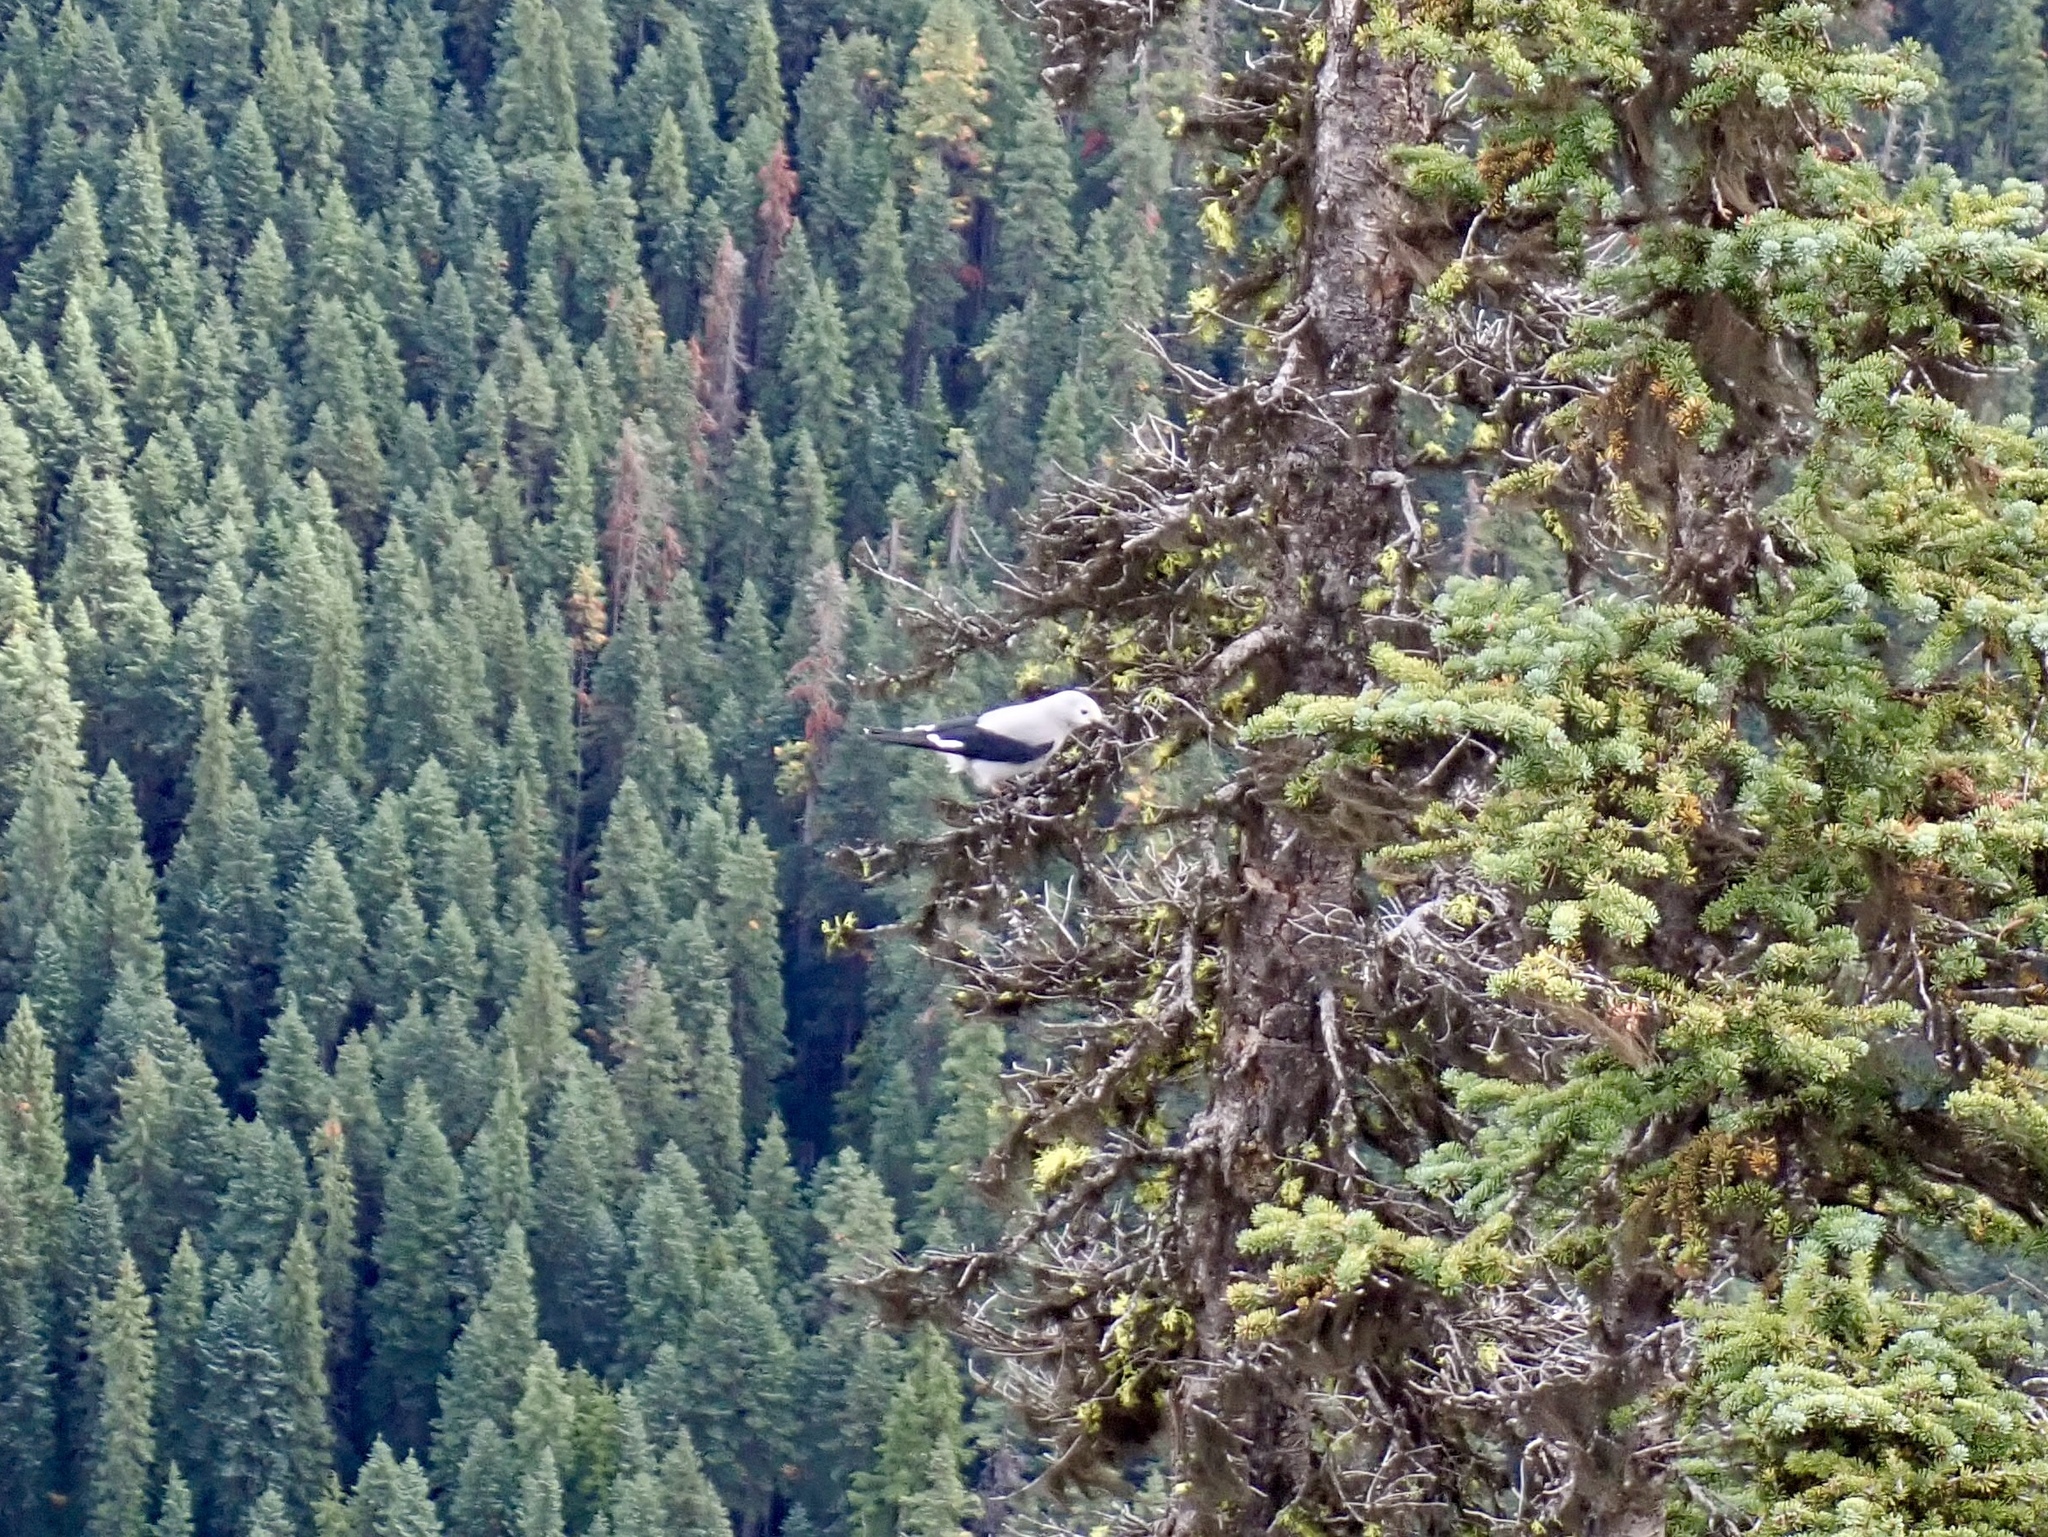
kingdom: Animalia
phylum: Chordata
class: Aves
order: Passeriformes
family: Corvidae
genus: Nucifraga
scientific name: Nucifraga columbiana
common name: Clark's nutcracker
